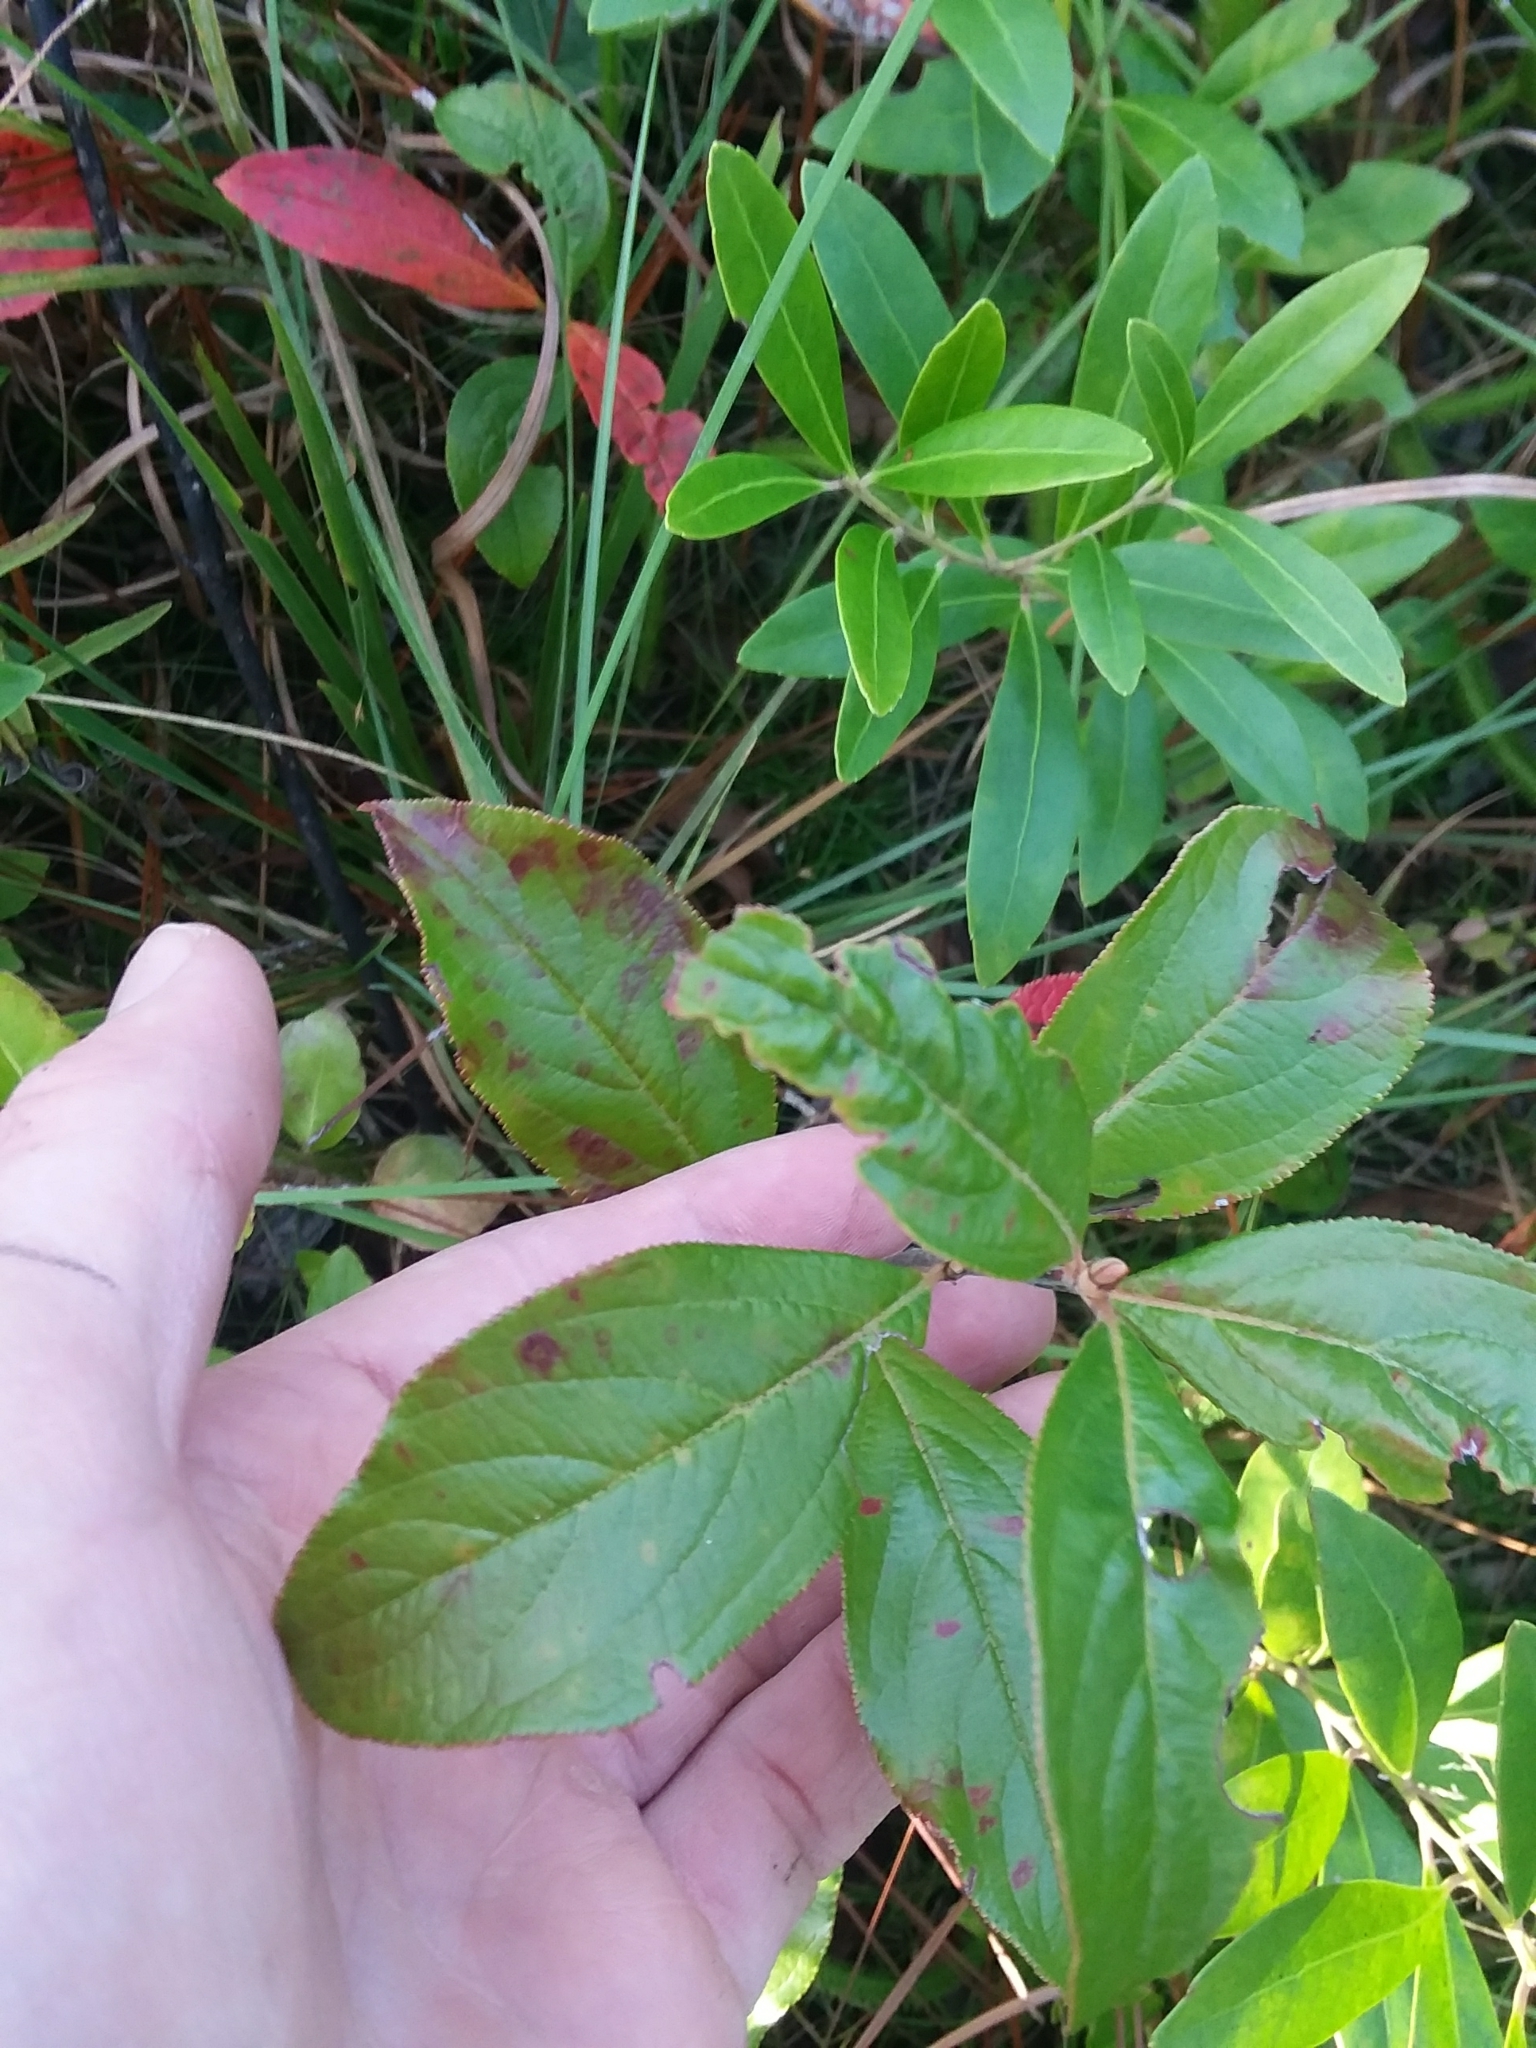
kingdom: Plantae
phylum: Tracheophyta
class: Magnoliopsida
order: Rosales
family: Rosaceae
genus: Aronia
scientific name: Aronia arbutifolia
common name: Red chokeberry
